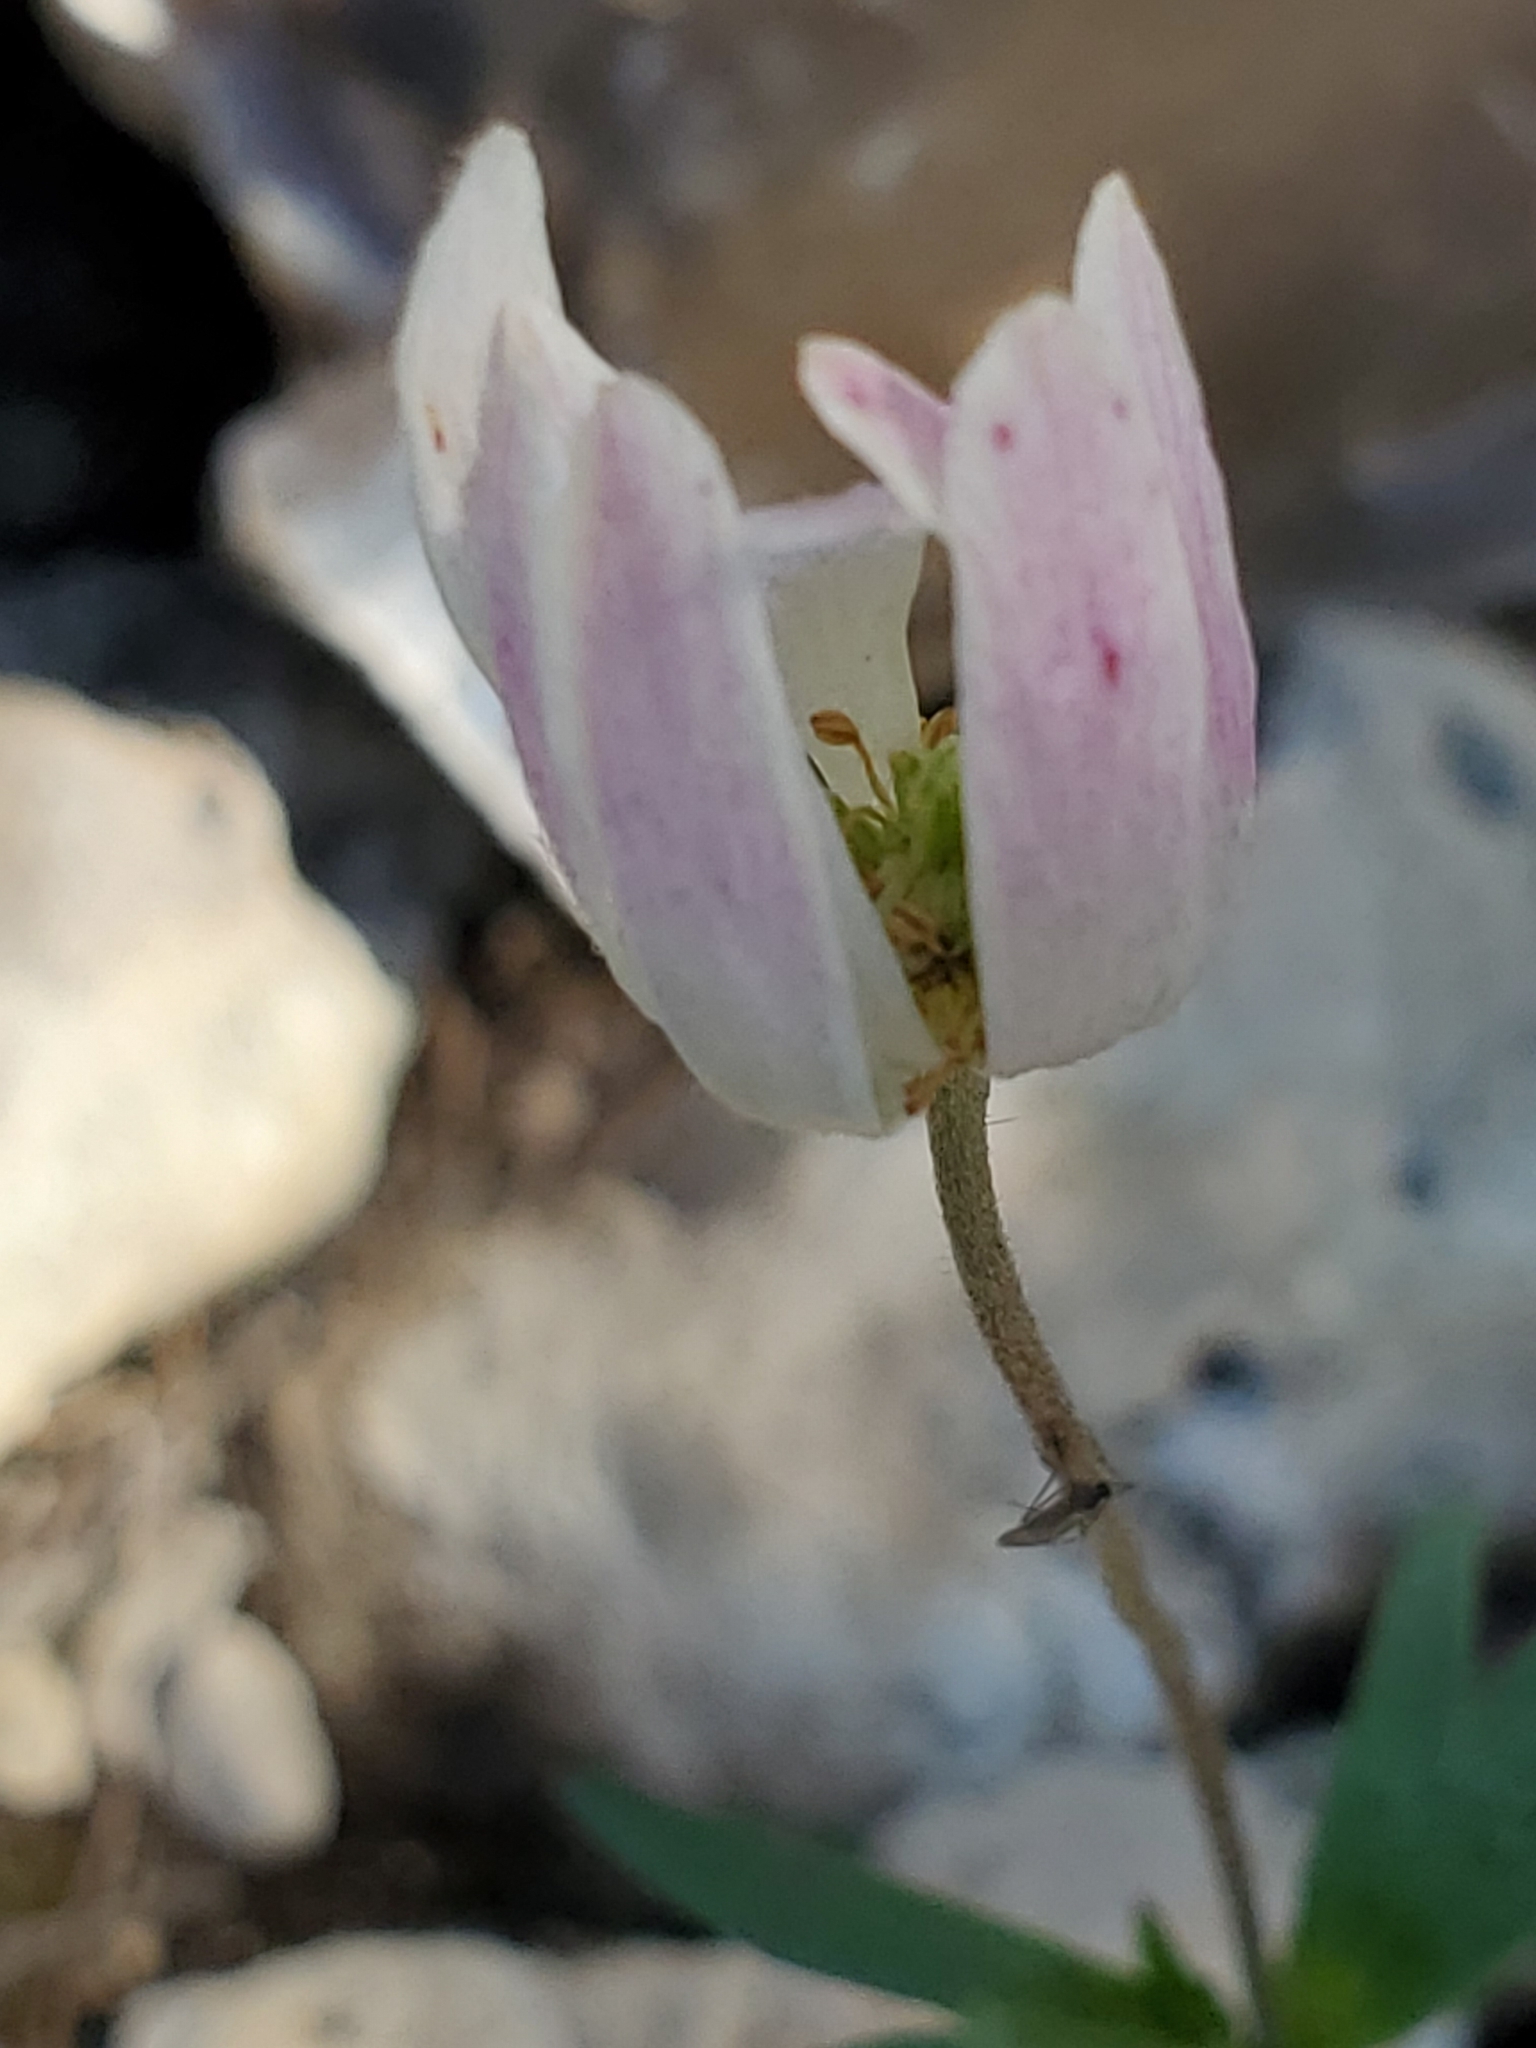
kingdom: Plantae
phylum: Tracheophyta
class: Magnoliopsida
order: Ranunculales
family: Ranunculaceae
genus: Anemone
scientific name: Anemone edwardsiana
